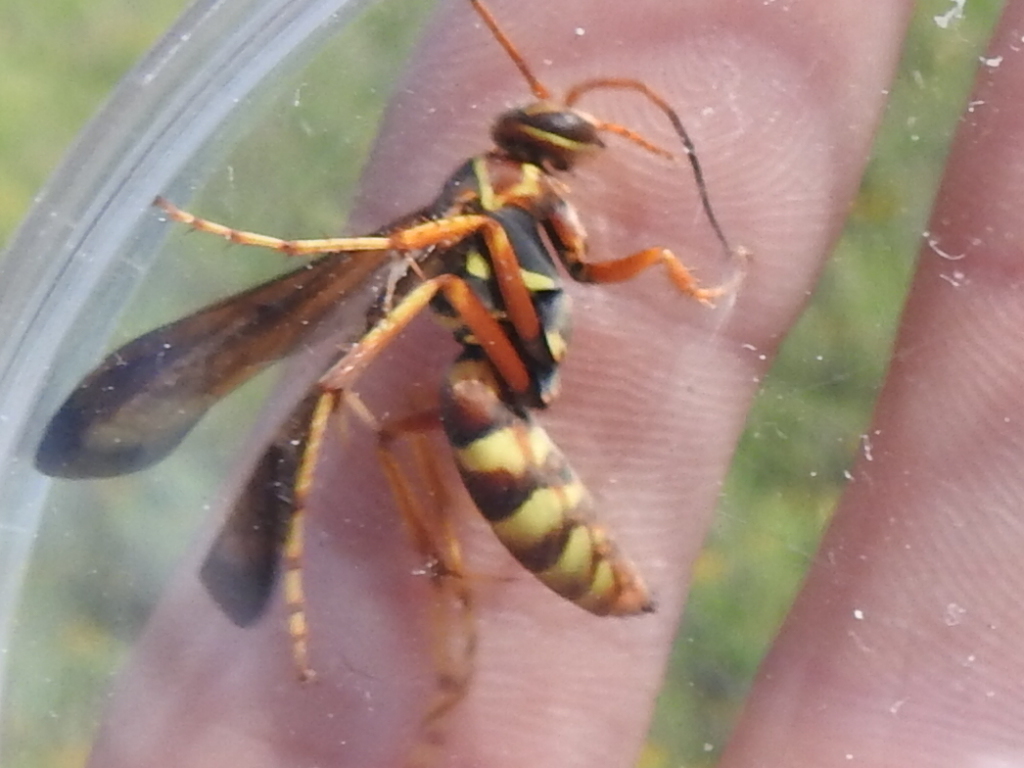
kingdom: Animalia
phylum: Arthropoda
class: Insecta
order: Hymenoptera
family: Pompilidae
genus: Poecilopompilus
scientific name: Poecilopompilus interruptus
